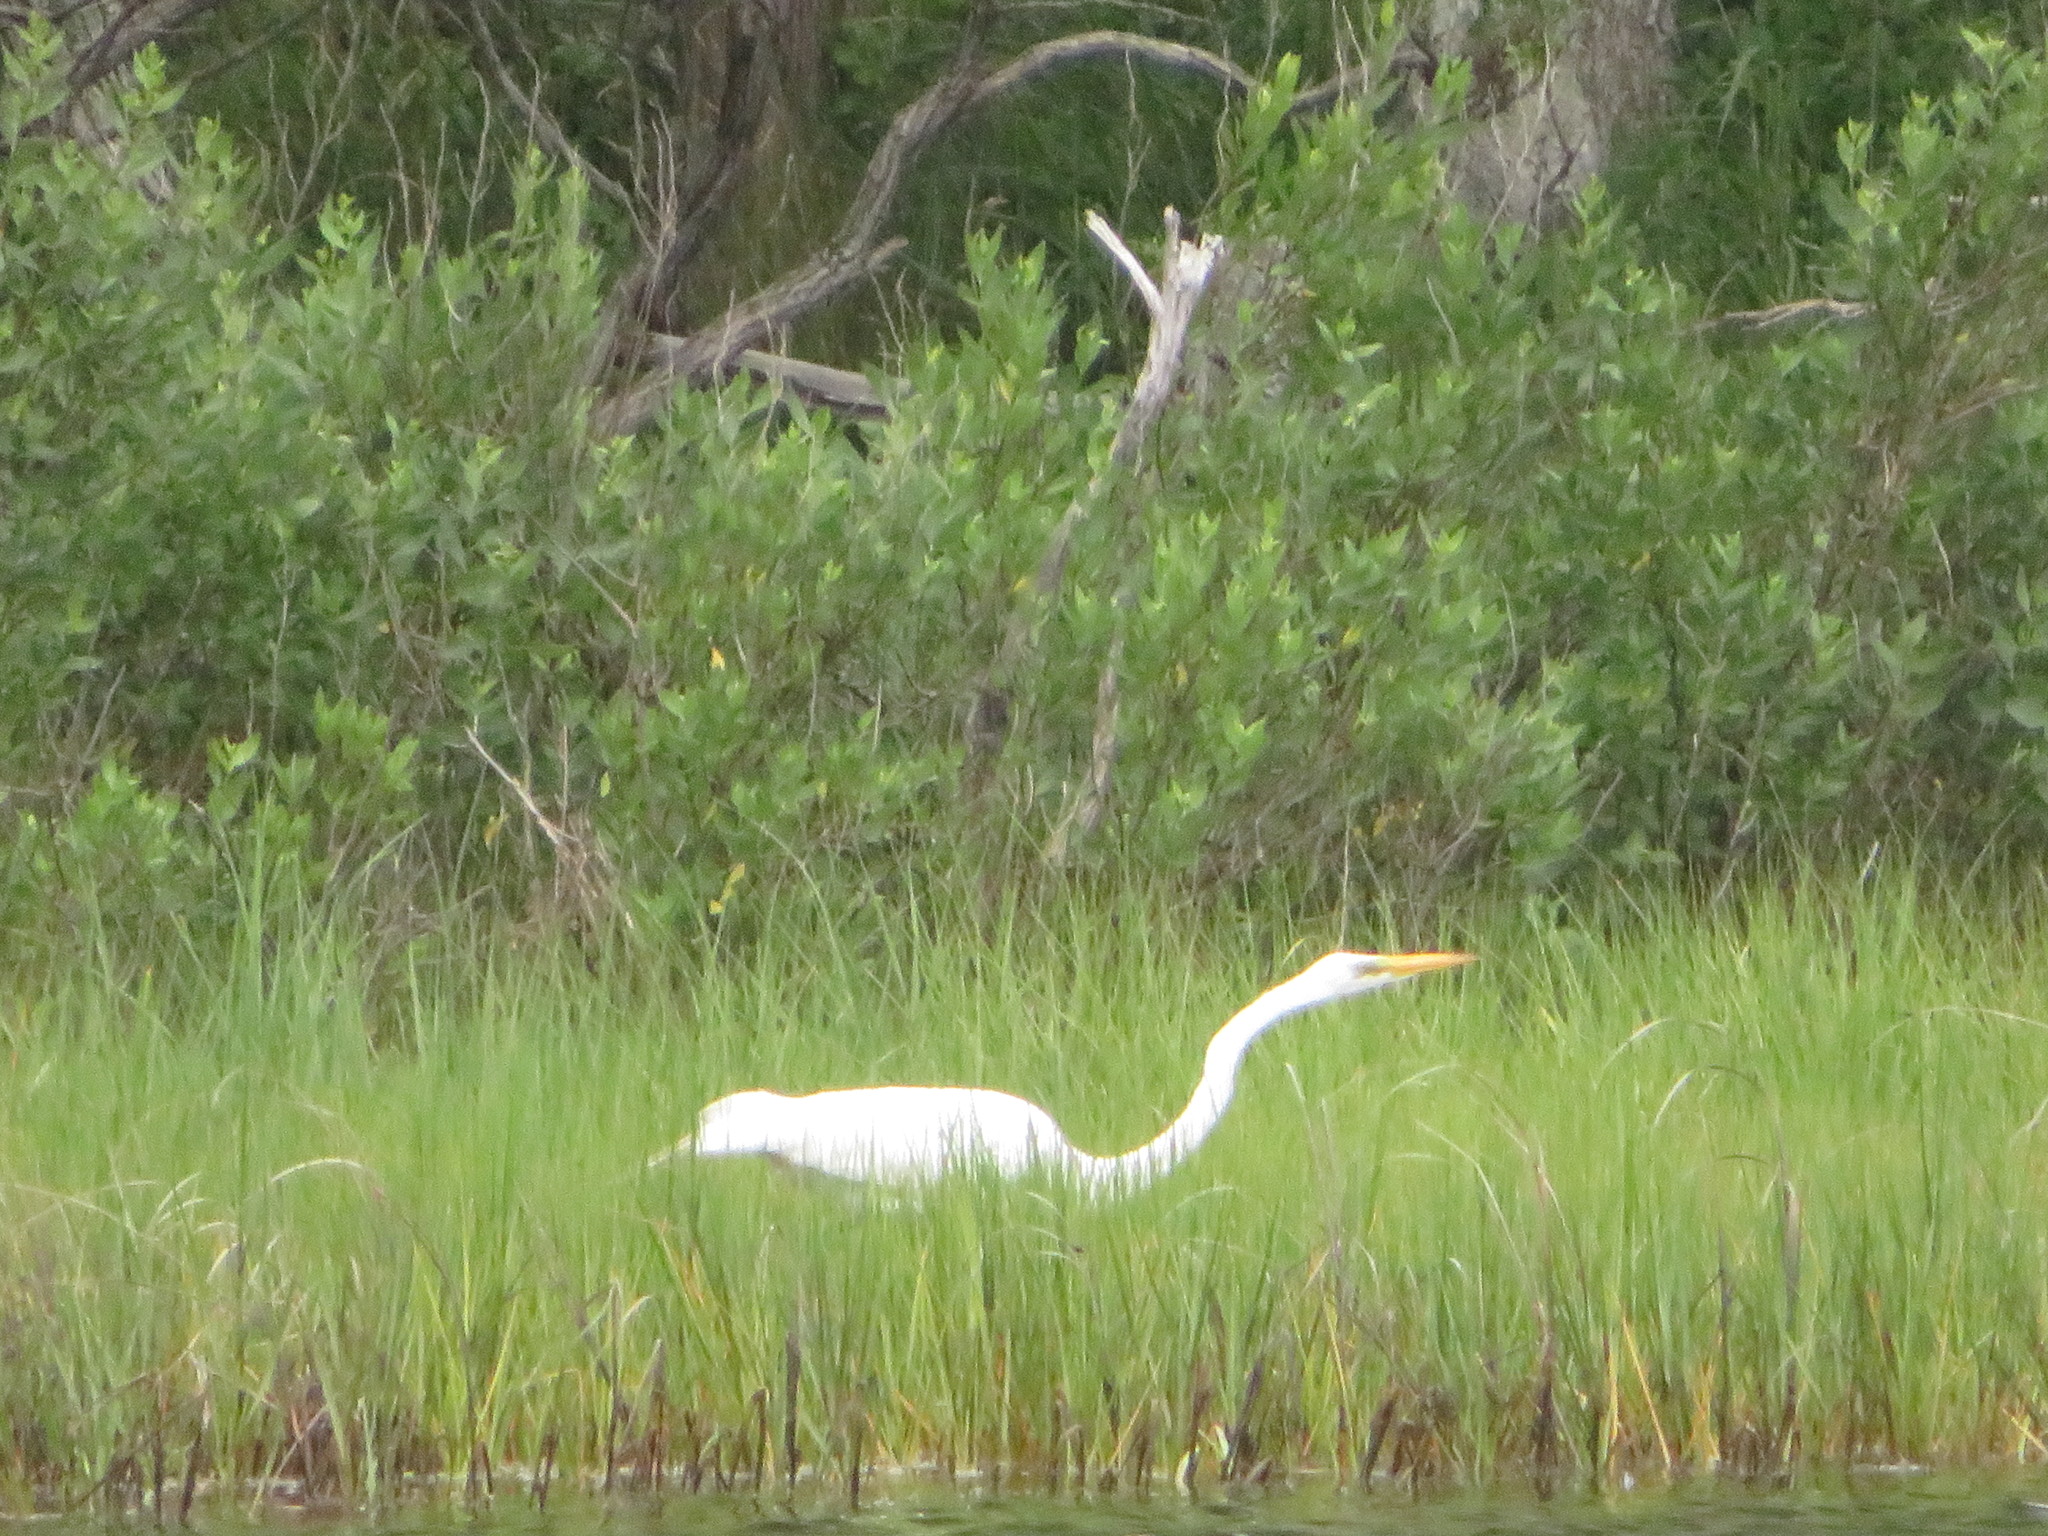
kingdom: Animalia
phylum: Chordata
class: Aves
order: Pelecaniformes
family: Ardeidae
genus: Ardea
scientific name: Ardea alba
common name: Great egret
